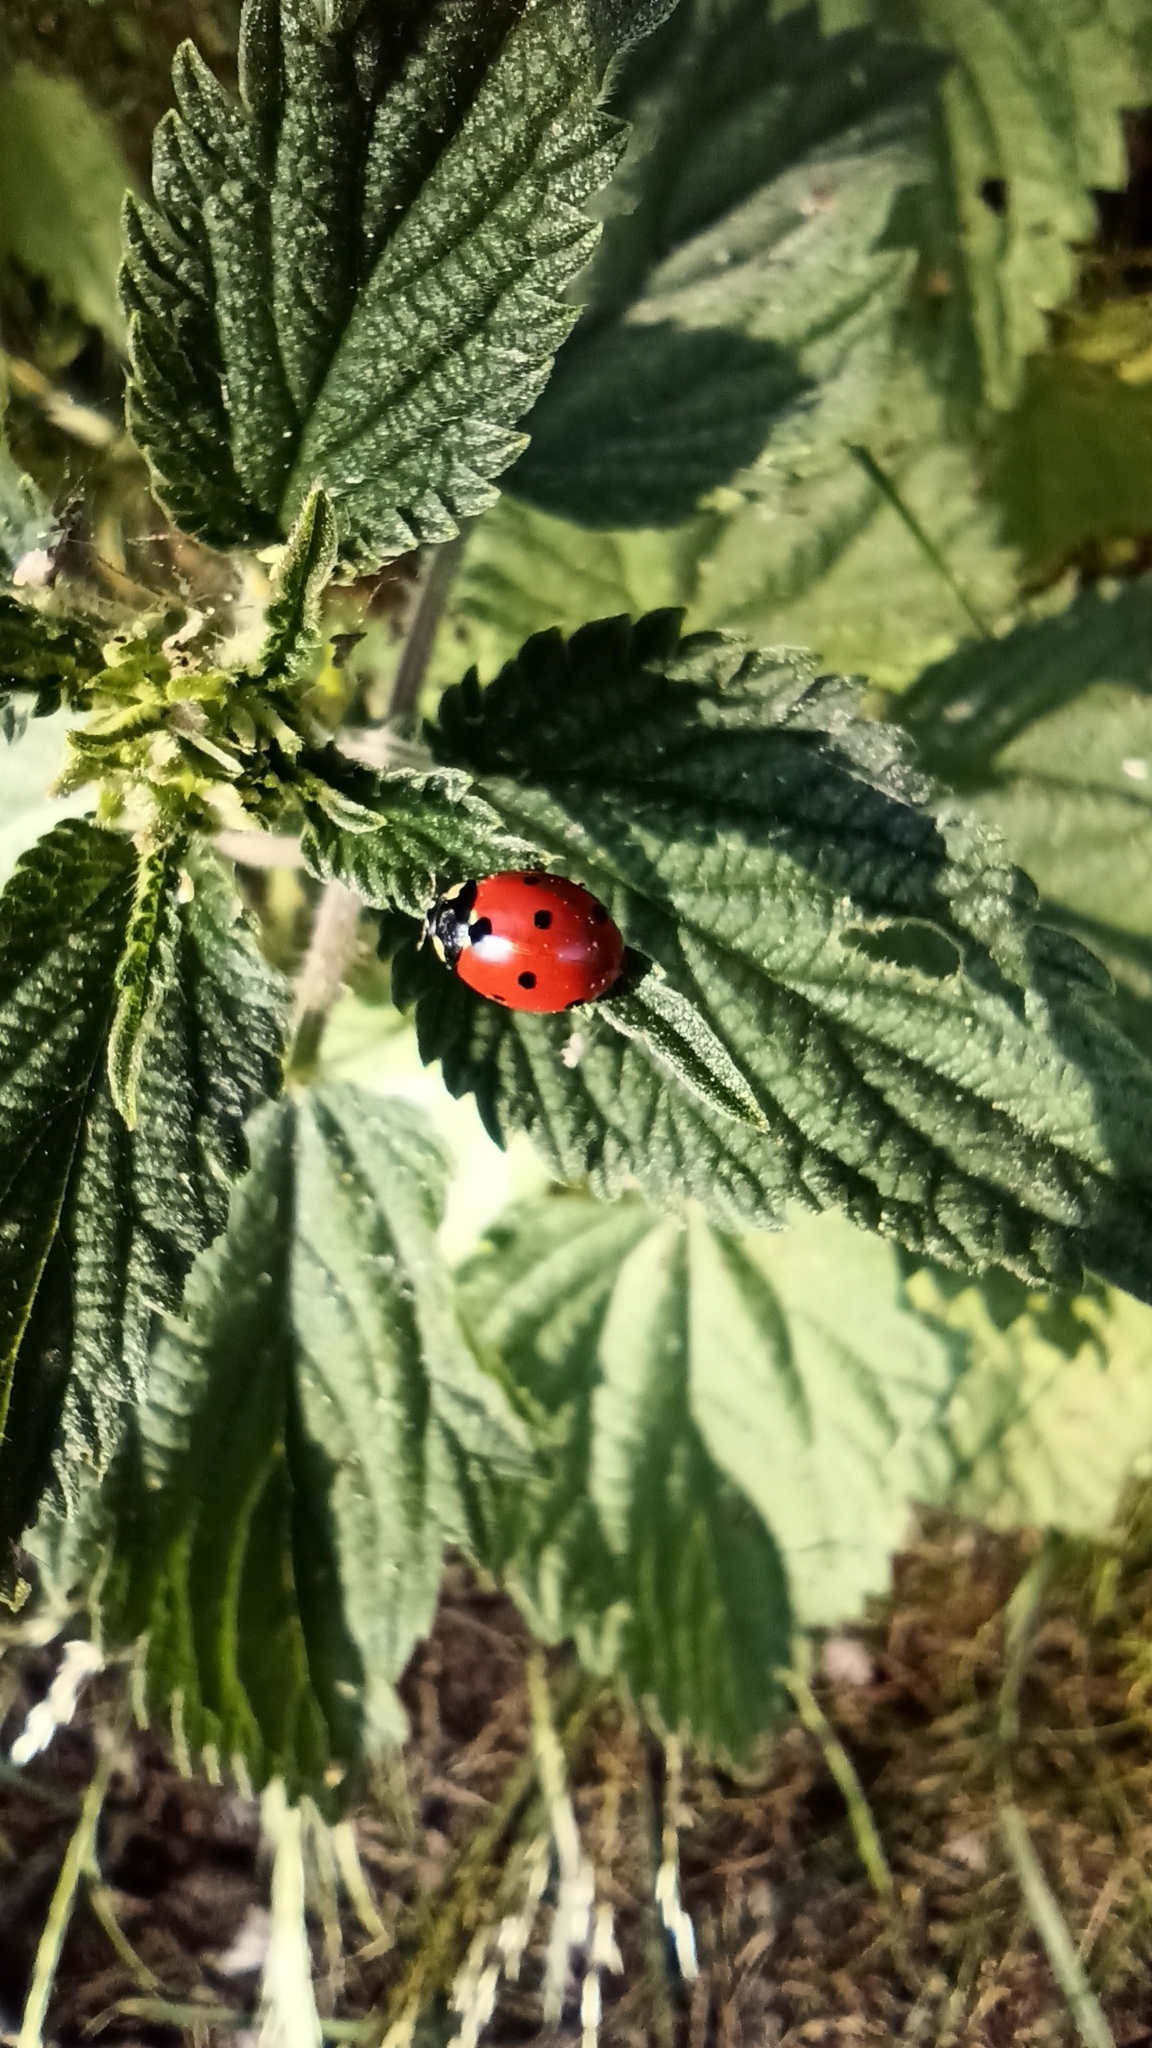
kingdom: Animalia
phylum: Arthropoda
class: Insecta
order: Coleoptera
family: Coccinellidae
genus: Coccinella
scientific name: Coccinella septempunctata
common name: Sevenspotted lady beetle
